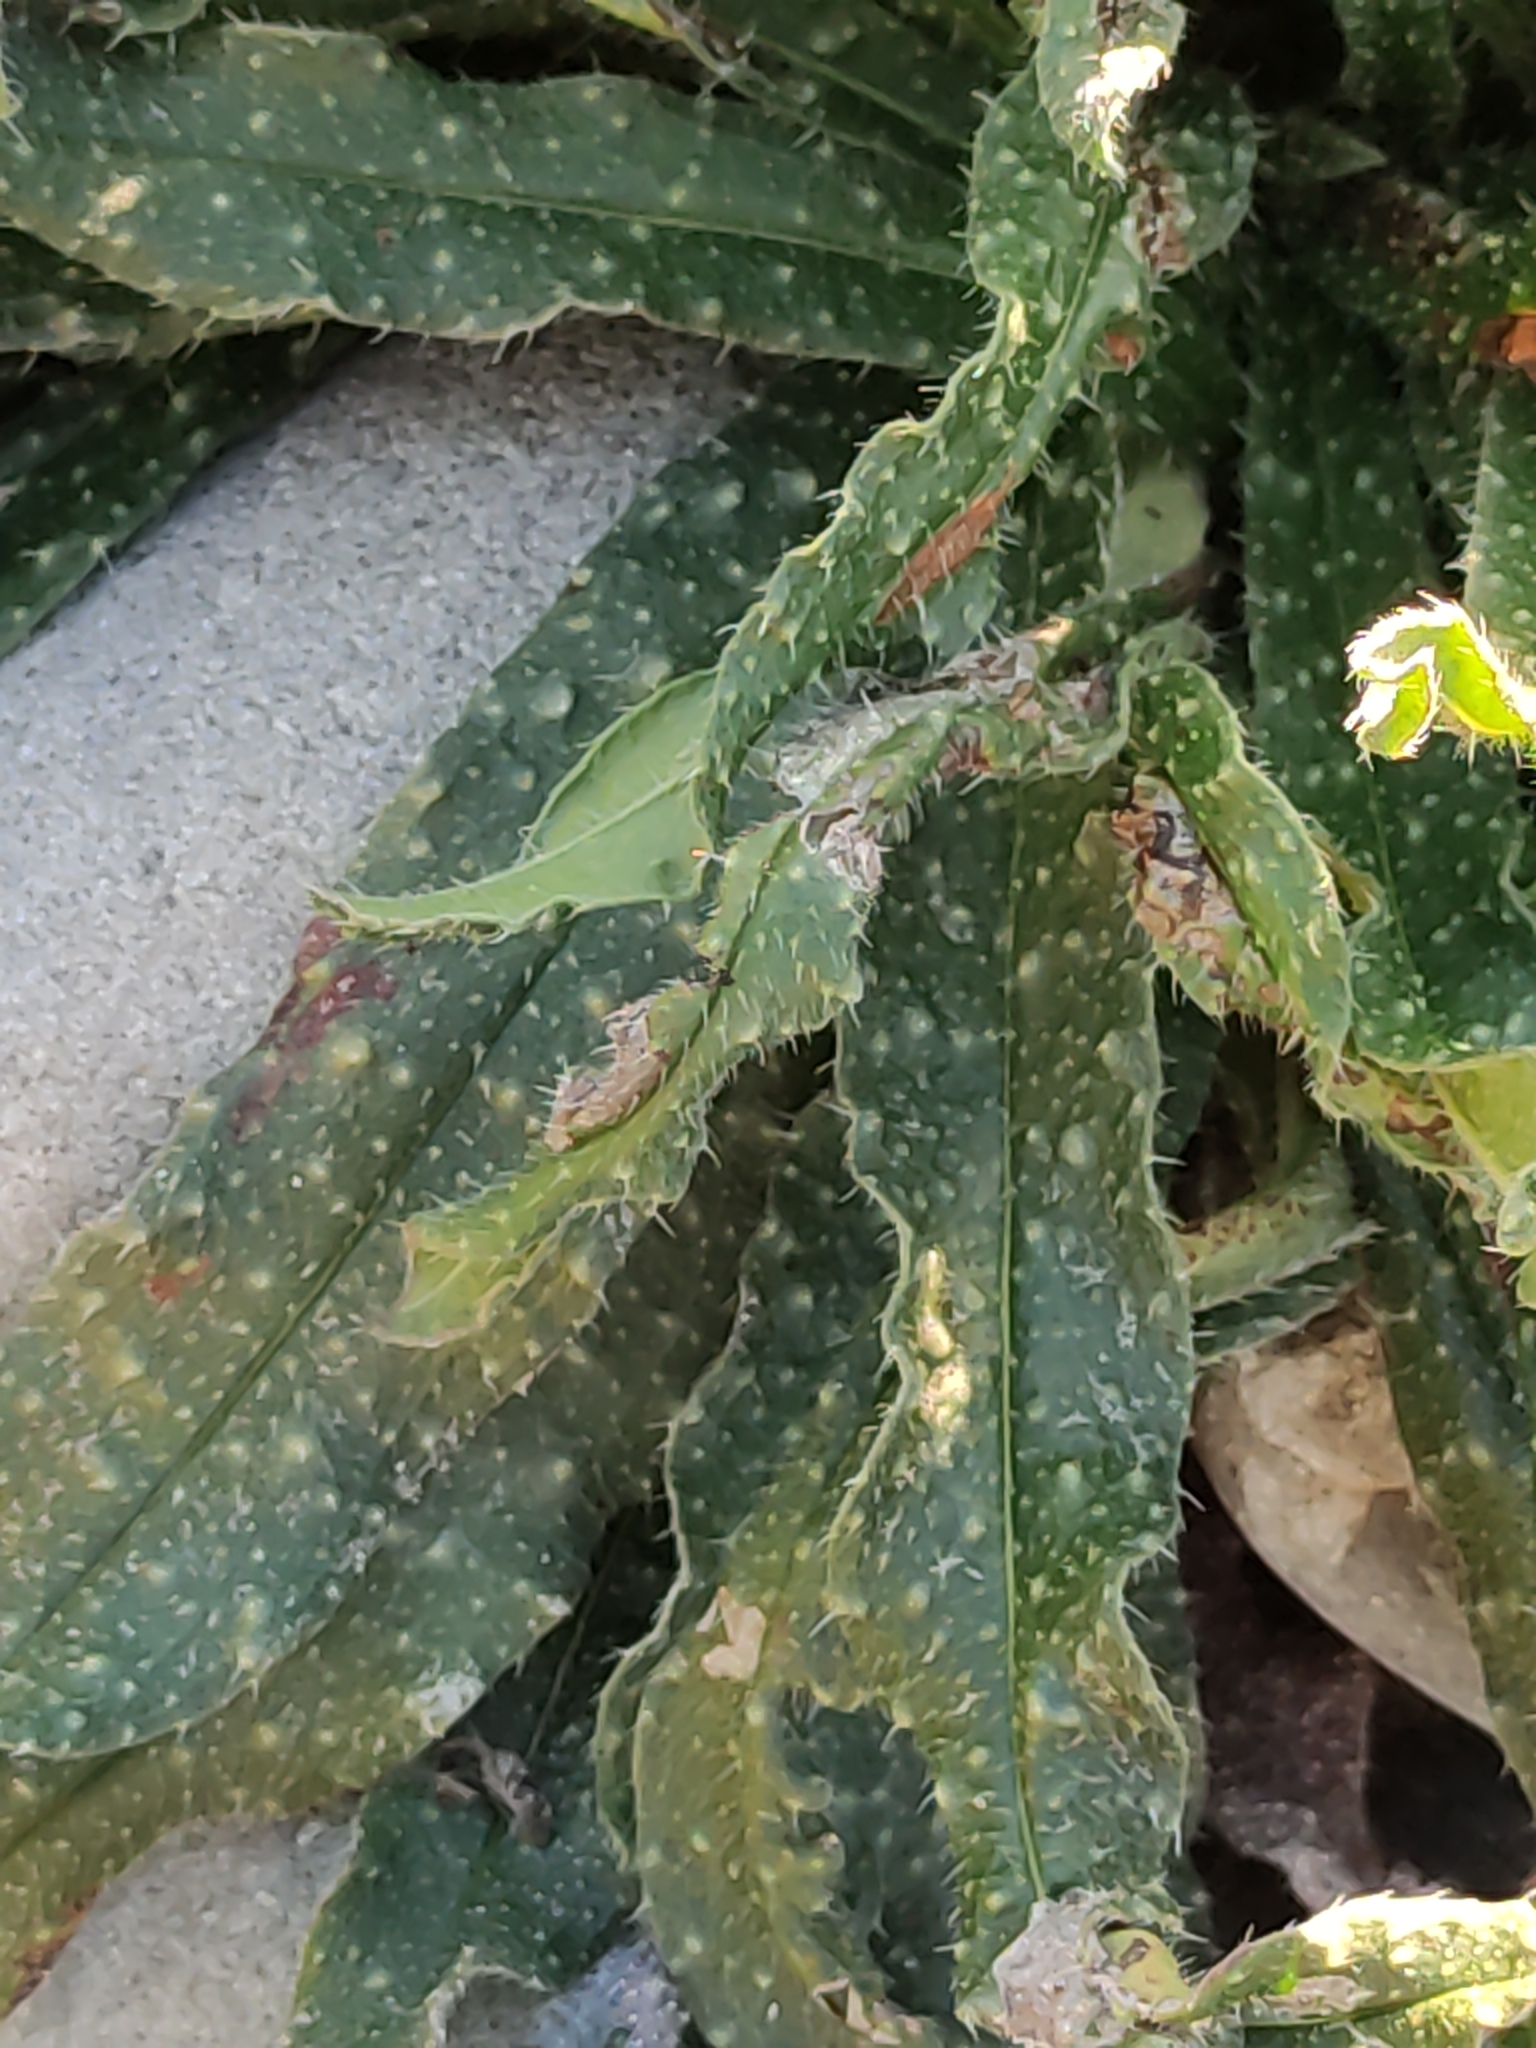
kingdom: Plantae
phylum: Tracheophyta
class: Magnoliopsida
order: Asterales
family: Asteraceae
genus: Helminthotheca
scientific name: Helminthotheca echioides
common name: Ox-tongue
